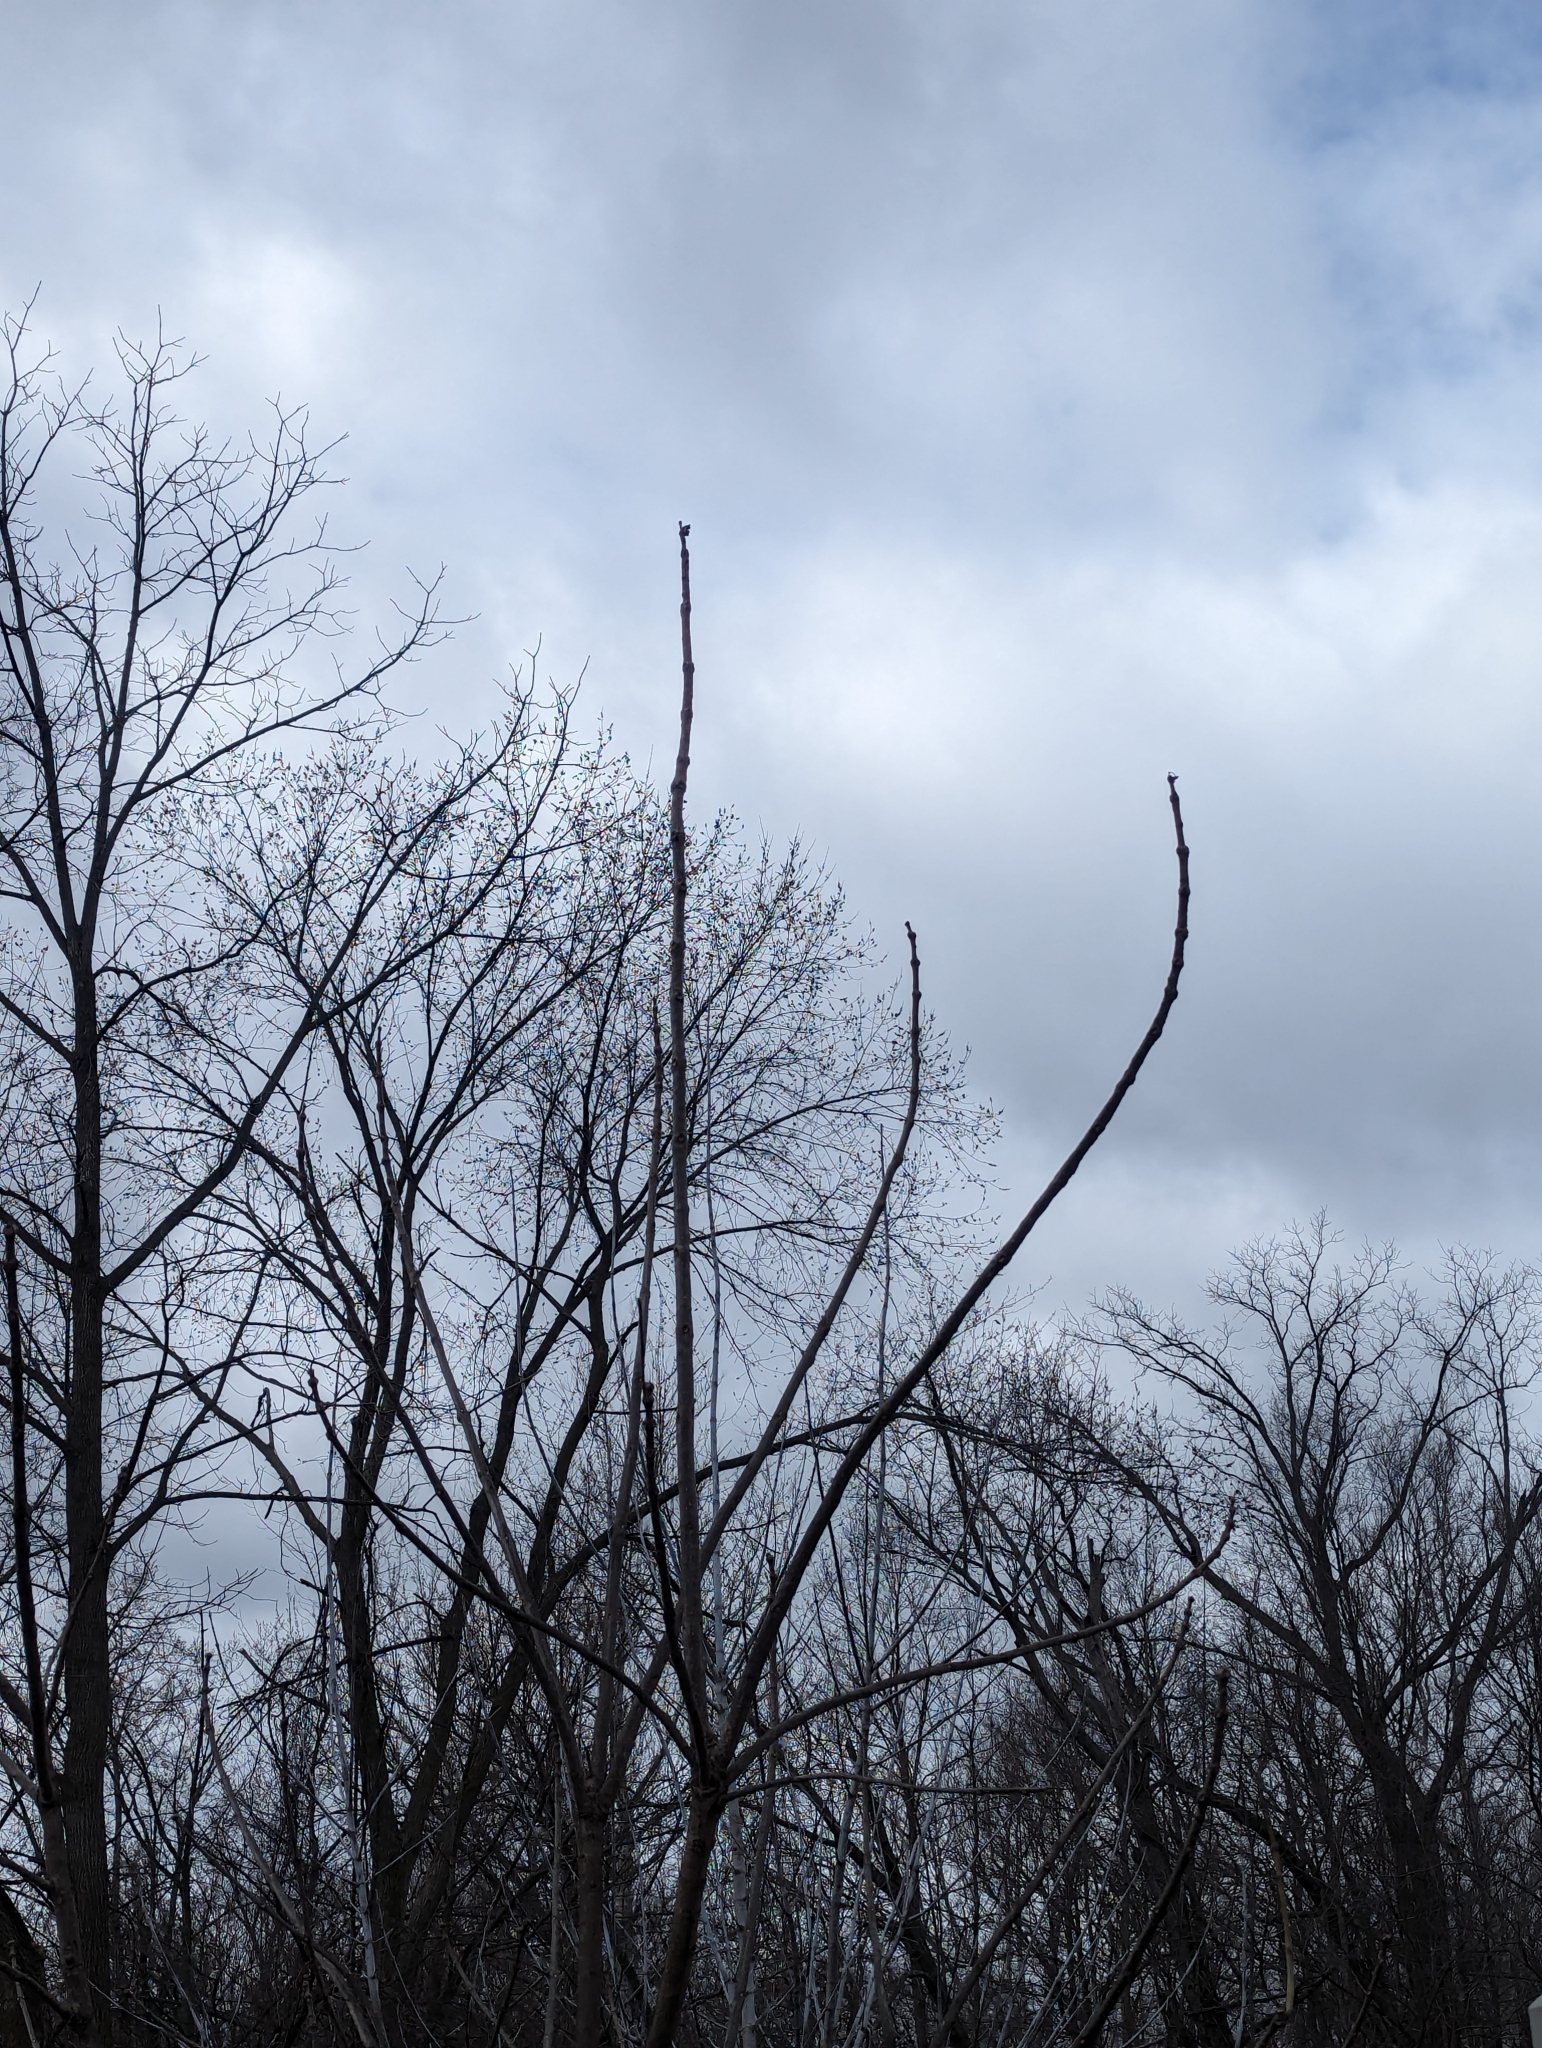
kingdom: Plantae
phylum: Tracheophyta
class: Magnoliopsida
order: Lamiales
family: Bignoniaceae
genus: Catalpa
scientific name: Catalpa speciosa
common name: Northern catalpa
